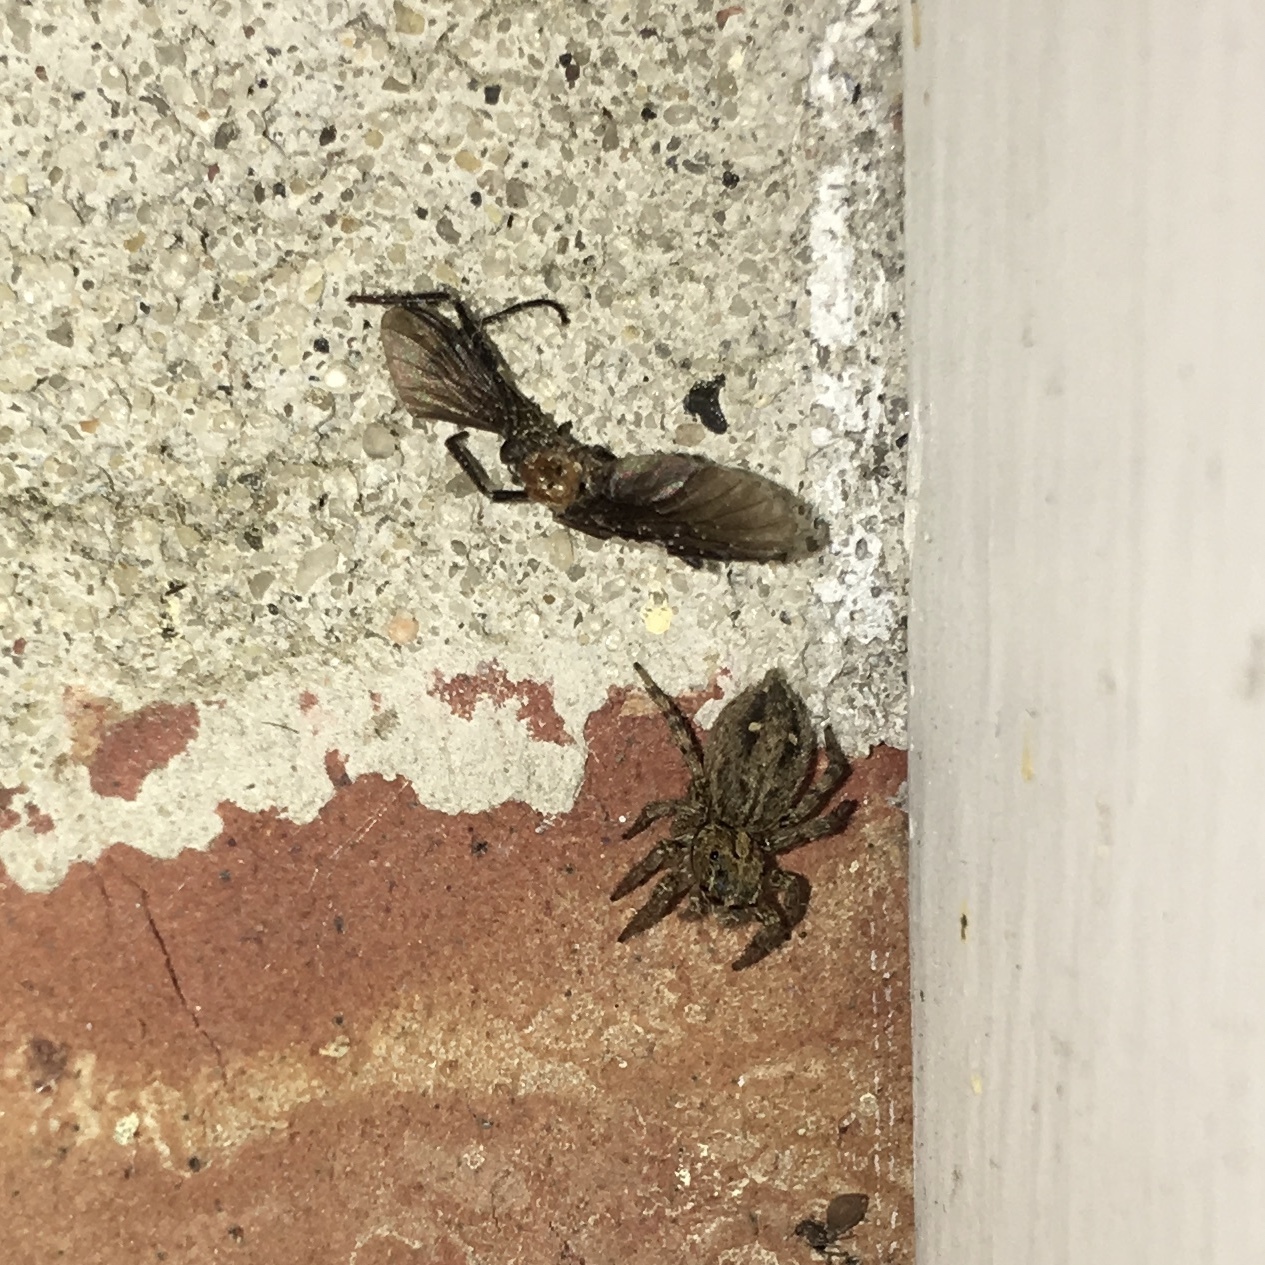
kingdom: Animalia
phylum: Arthropoda
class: Arachnida
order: Araneae
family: Salticidae
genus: Plexippus
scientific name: Plexippus paykulli
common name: Pantropical jumper
